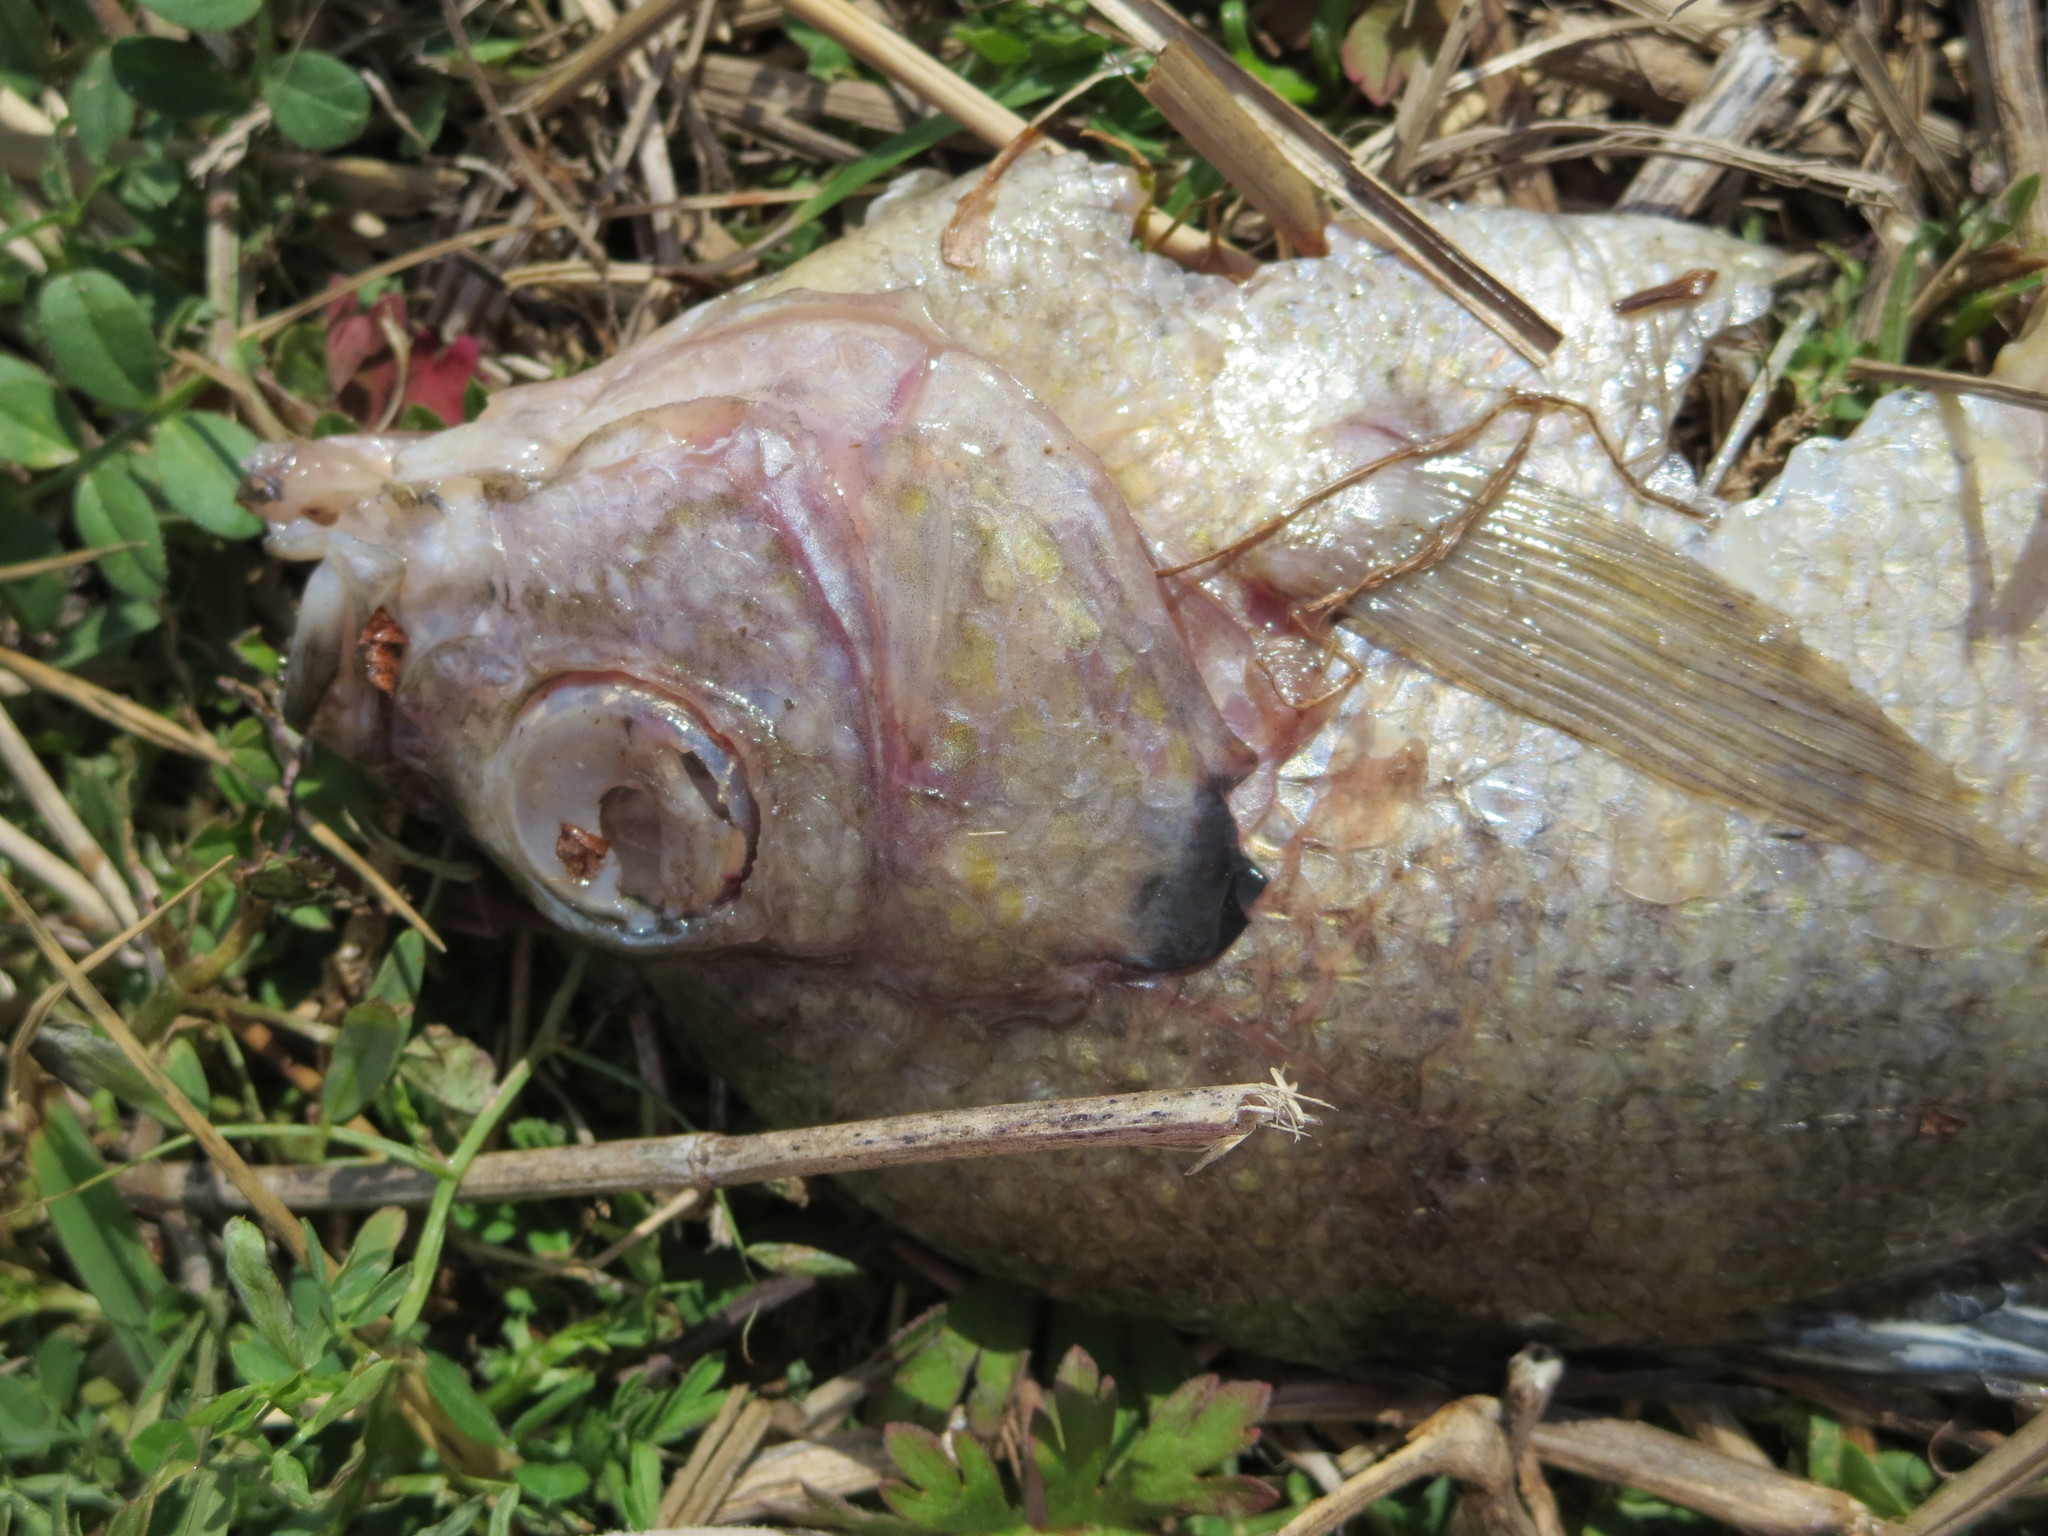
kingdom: Animalia
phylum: Chordata
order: Perciformes
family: Centrarchidae
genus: Lepomis
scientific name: Lepomis macrochirus
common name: Bluegill
